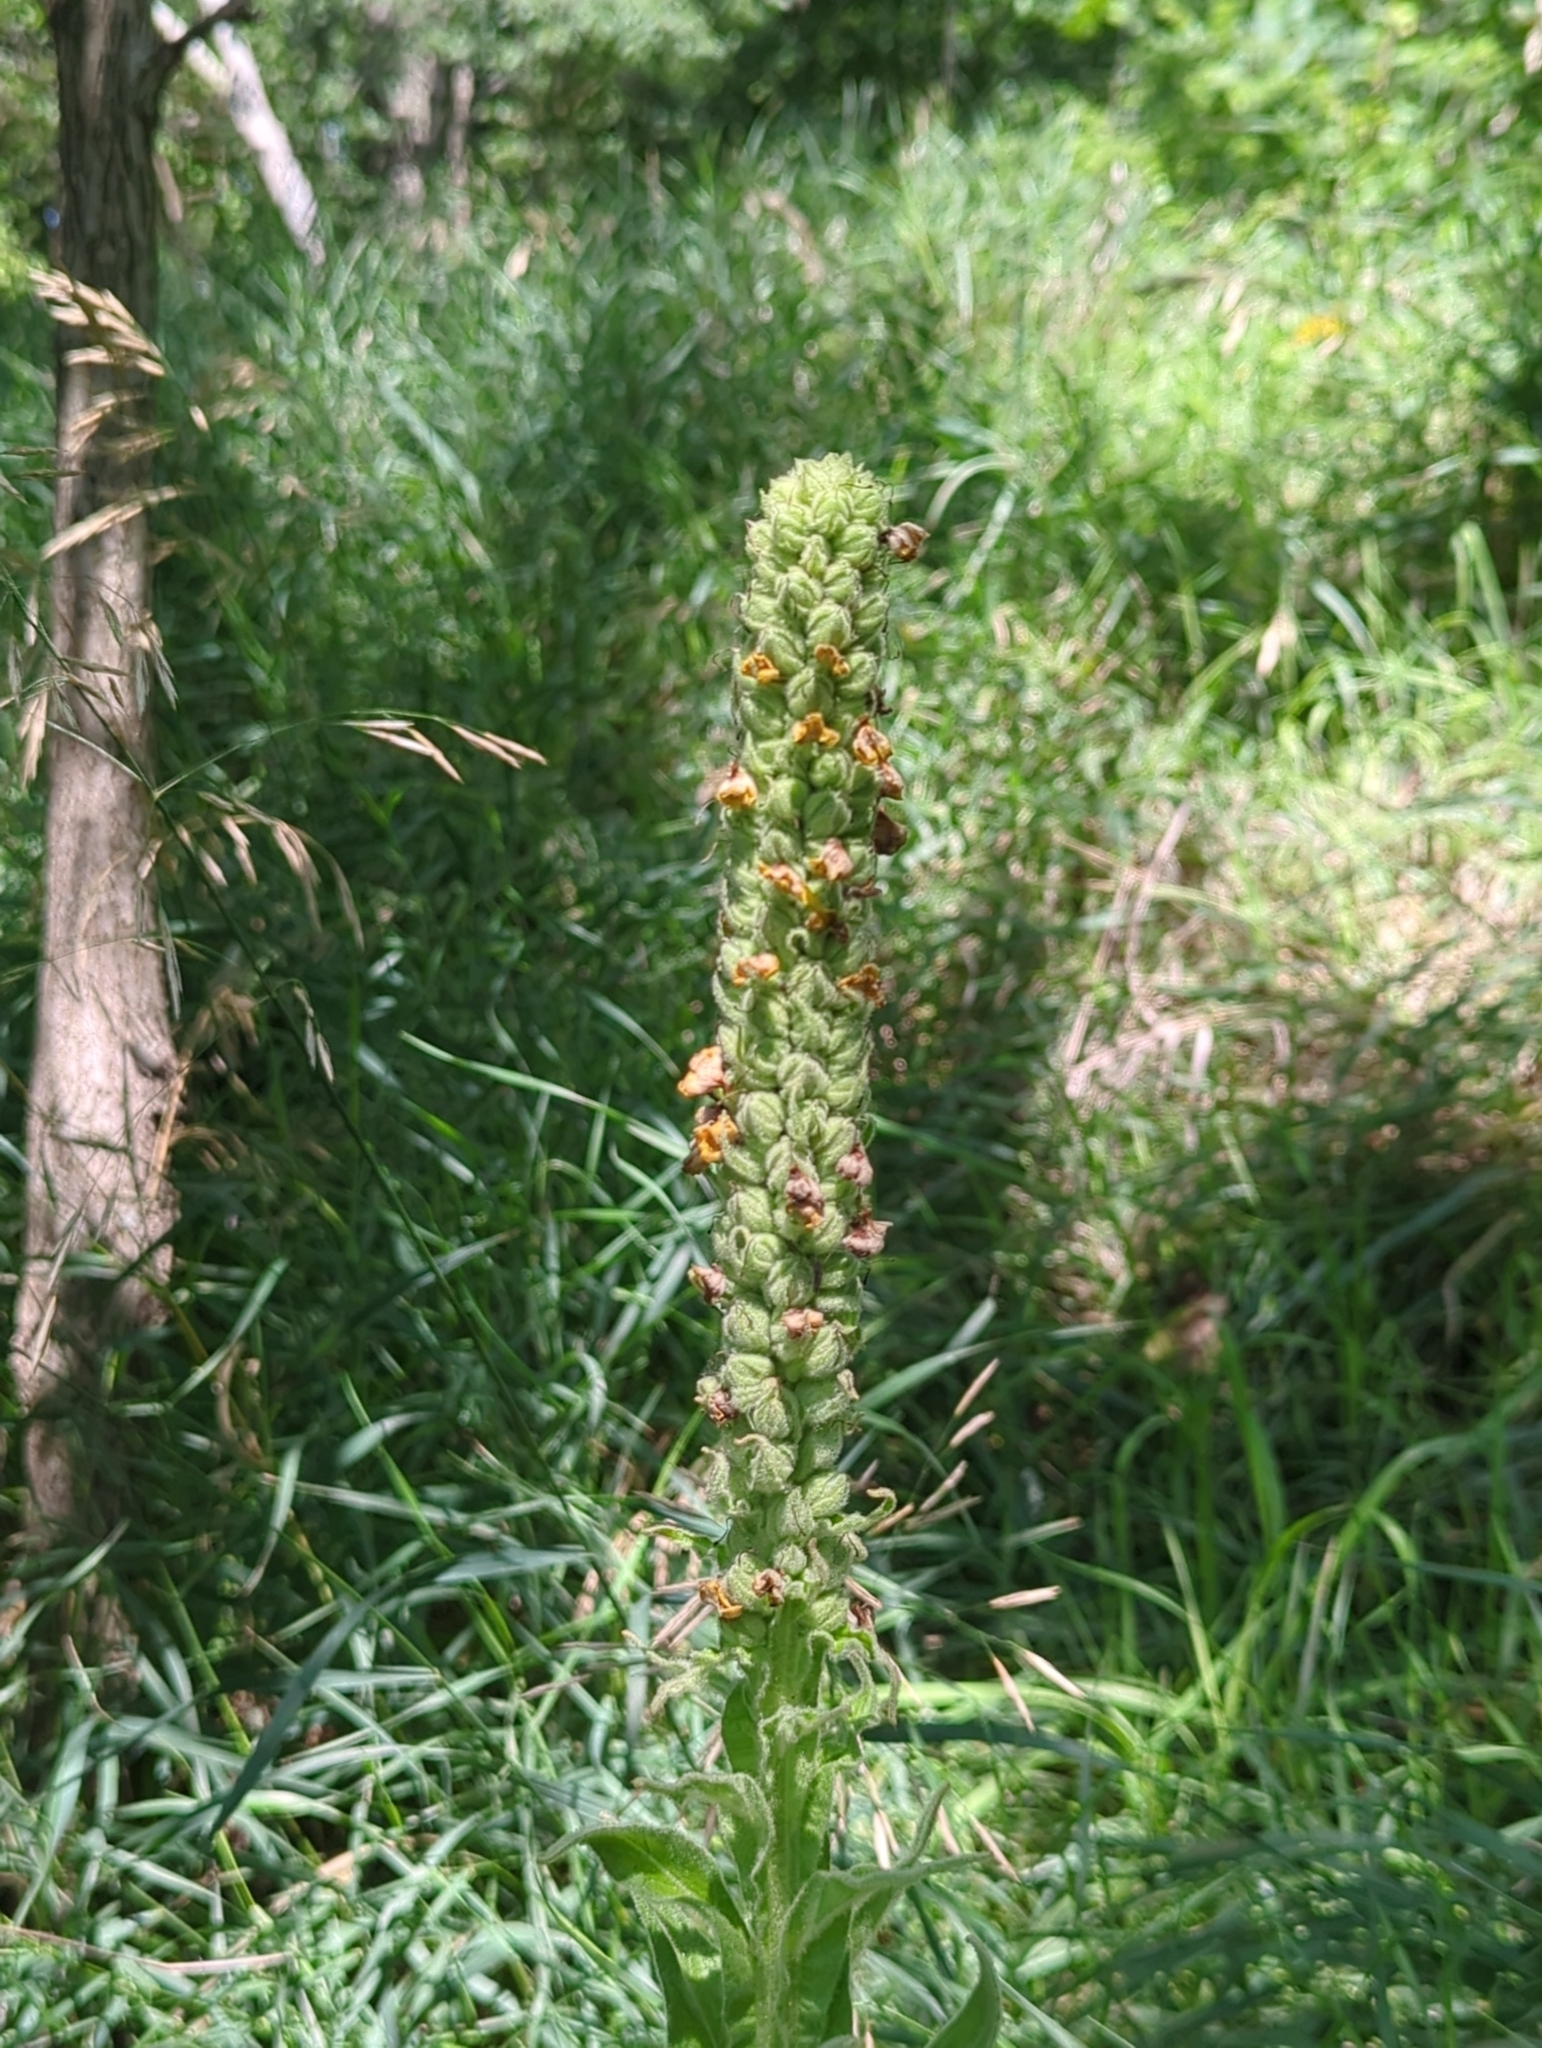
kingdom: Plantae
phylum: Tracheophyta
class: Magnoliopsida
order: Lamiales
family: Scrophulariaceae
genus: Verbascum
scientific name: Verbascum thapsus
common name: Common mullein
